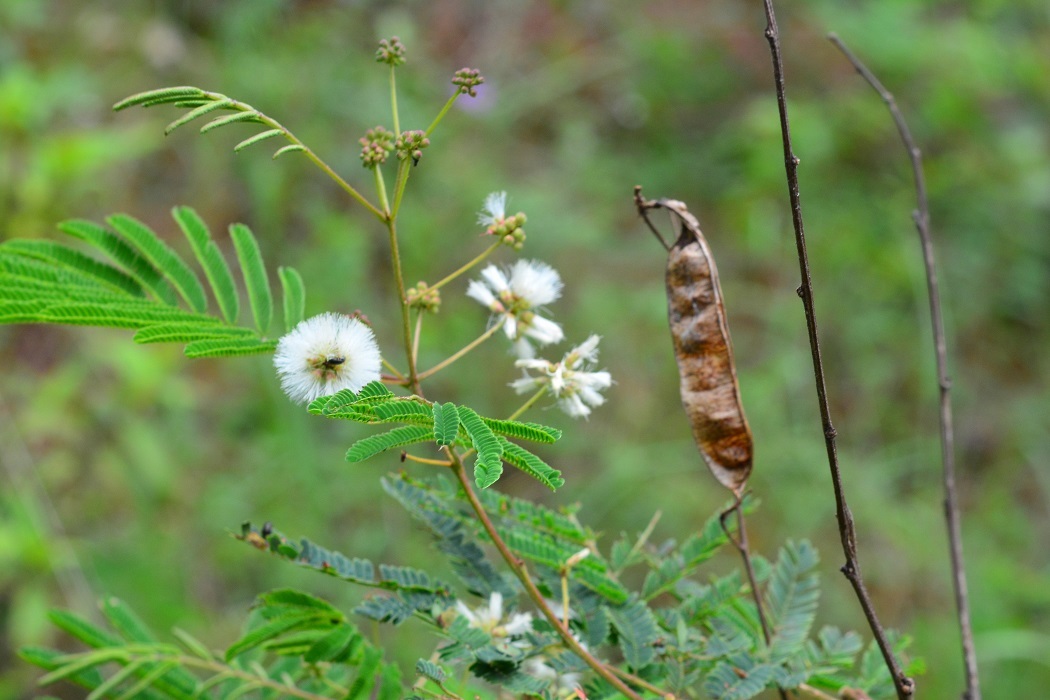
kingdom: Plantae
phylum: Tracheophyta
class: Magnoliopsida
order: Fabales
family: Fabaceae
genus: Acaciella
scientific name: Acaciella angustissima
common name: Prairie acacia
